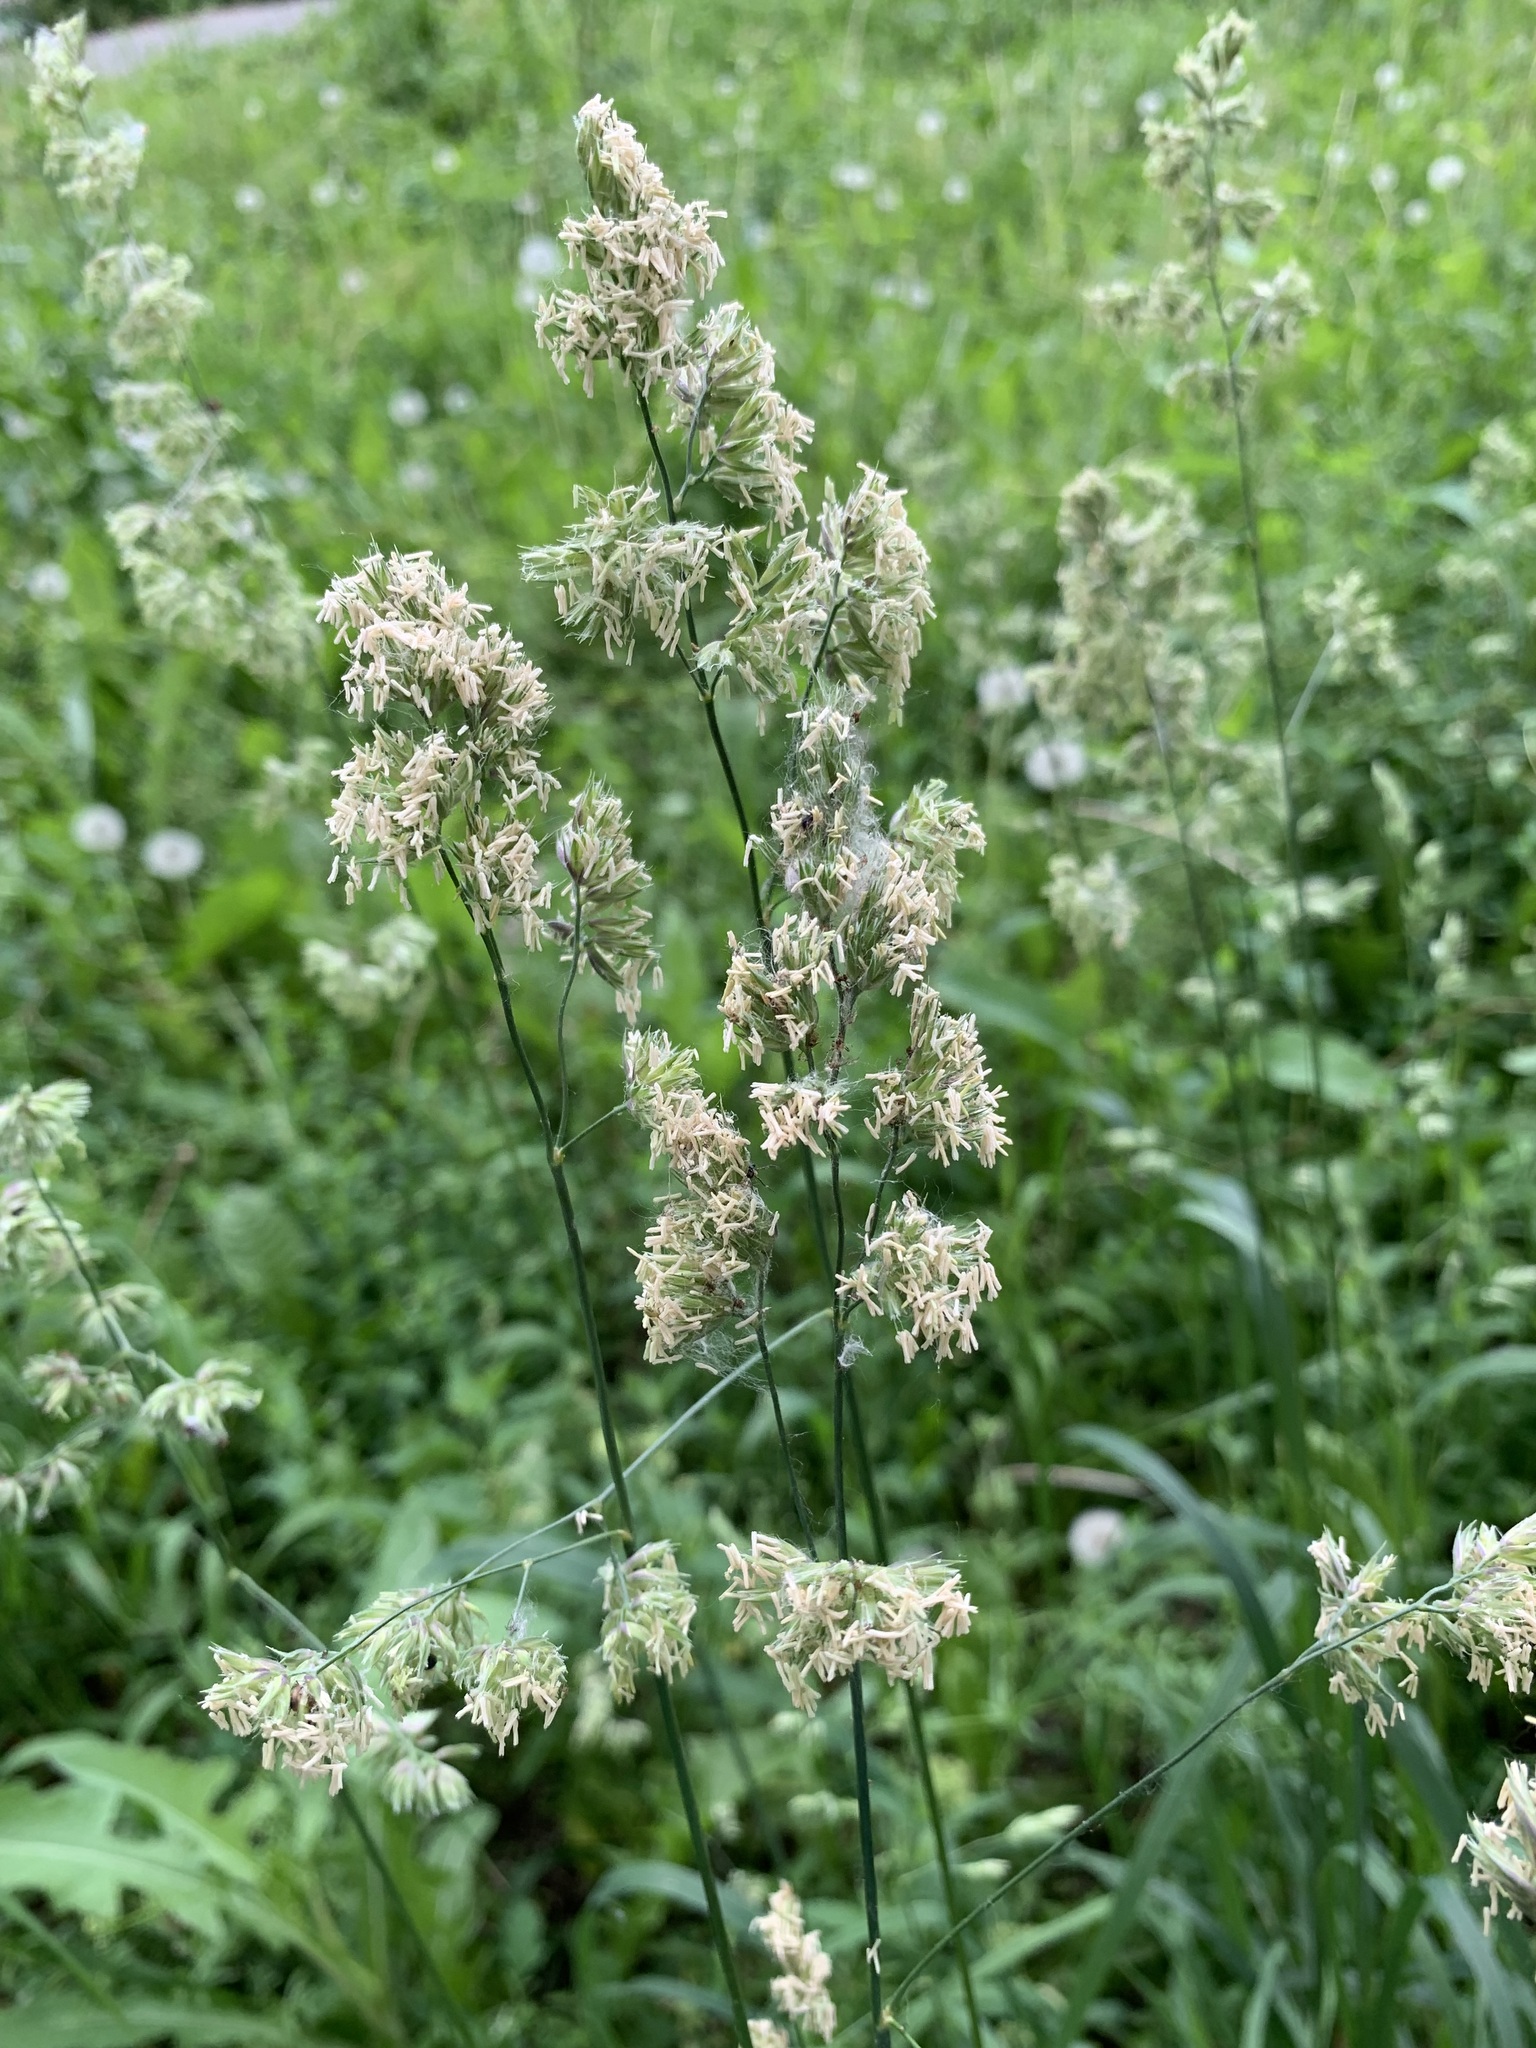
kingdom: Plantae
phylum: Tracheophyta
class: Liliopsida
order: Poales
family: Poaceae
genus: Dactylis
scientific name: Dactylis glomerata
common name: Orchardgrass
